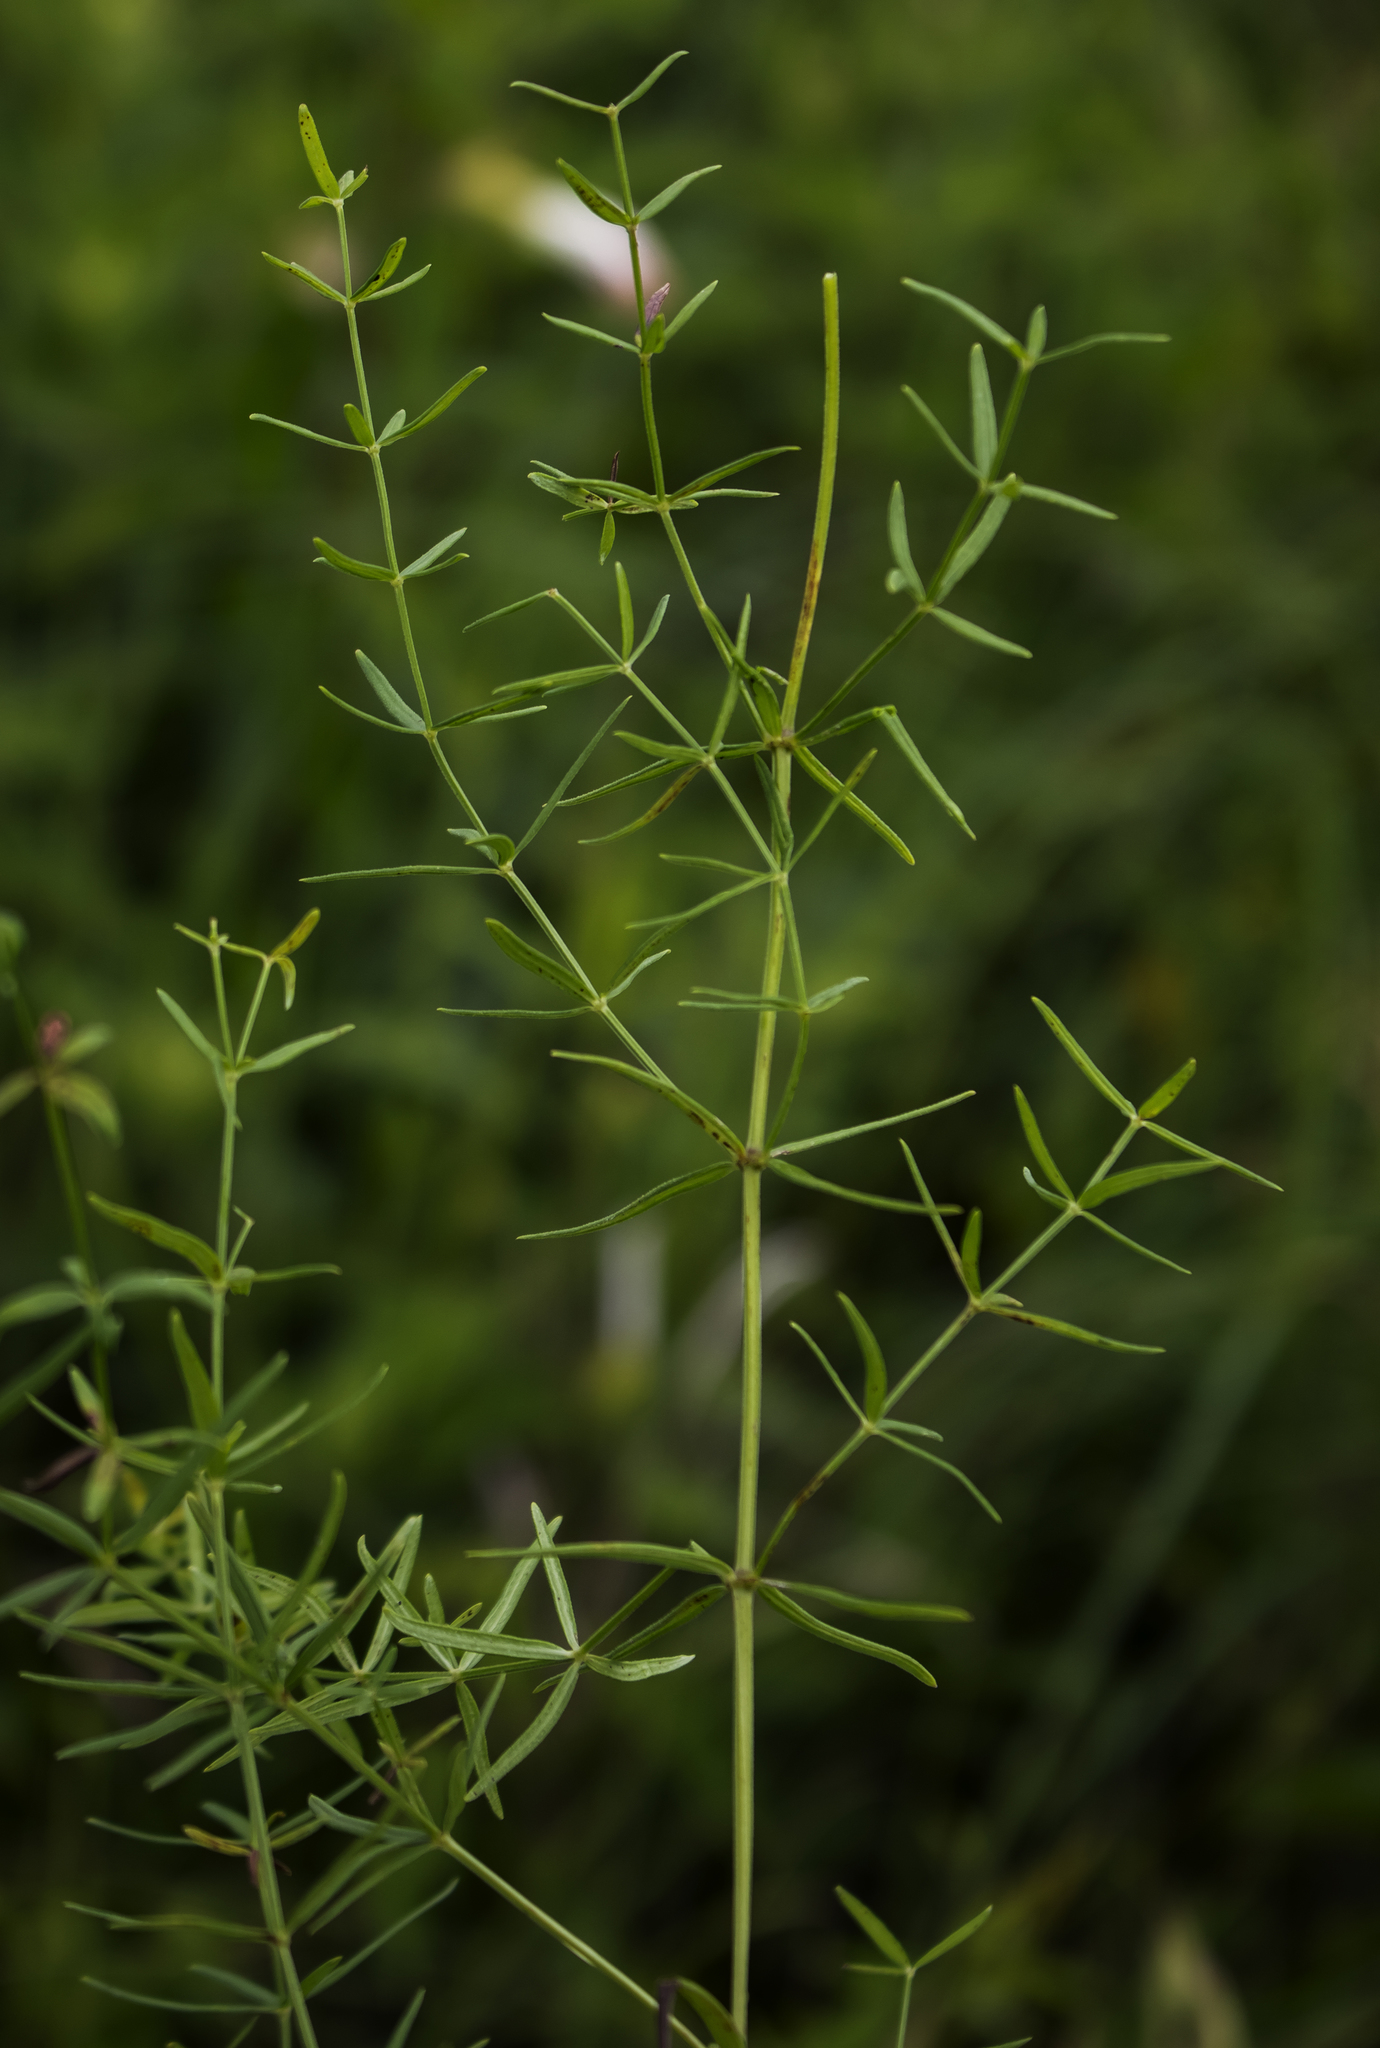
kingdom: Plantae
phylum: Tracheophyta
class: Magnoliopsida
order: Gentianales
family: Rubiaceae
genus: Galium
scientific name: Galium boreale
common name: Northern bedstraw
